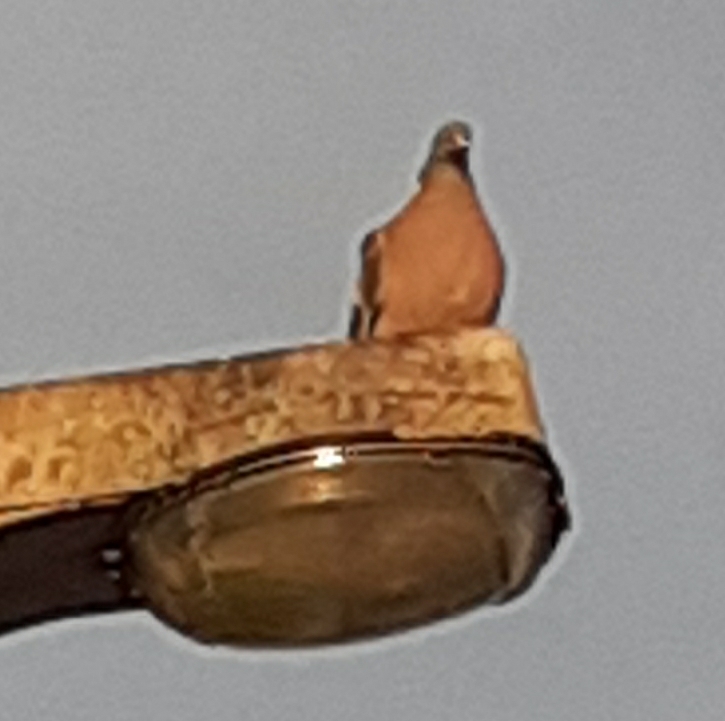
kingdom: Animalia
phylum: Chordata
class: Aves
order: Columbiformes
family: Columbidae
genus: Columba
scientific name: Columba palumbus
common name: Common wood pigeon
